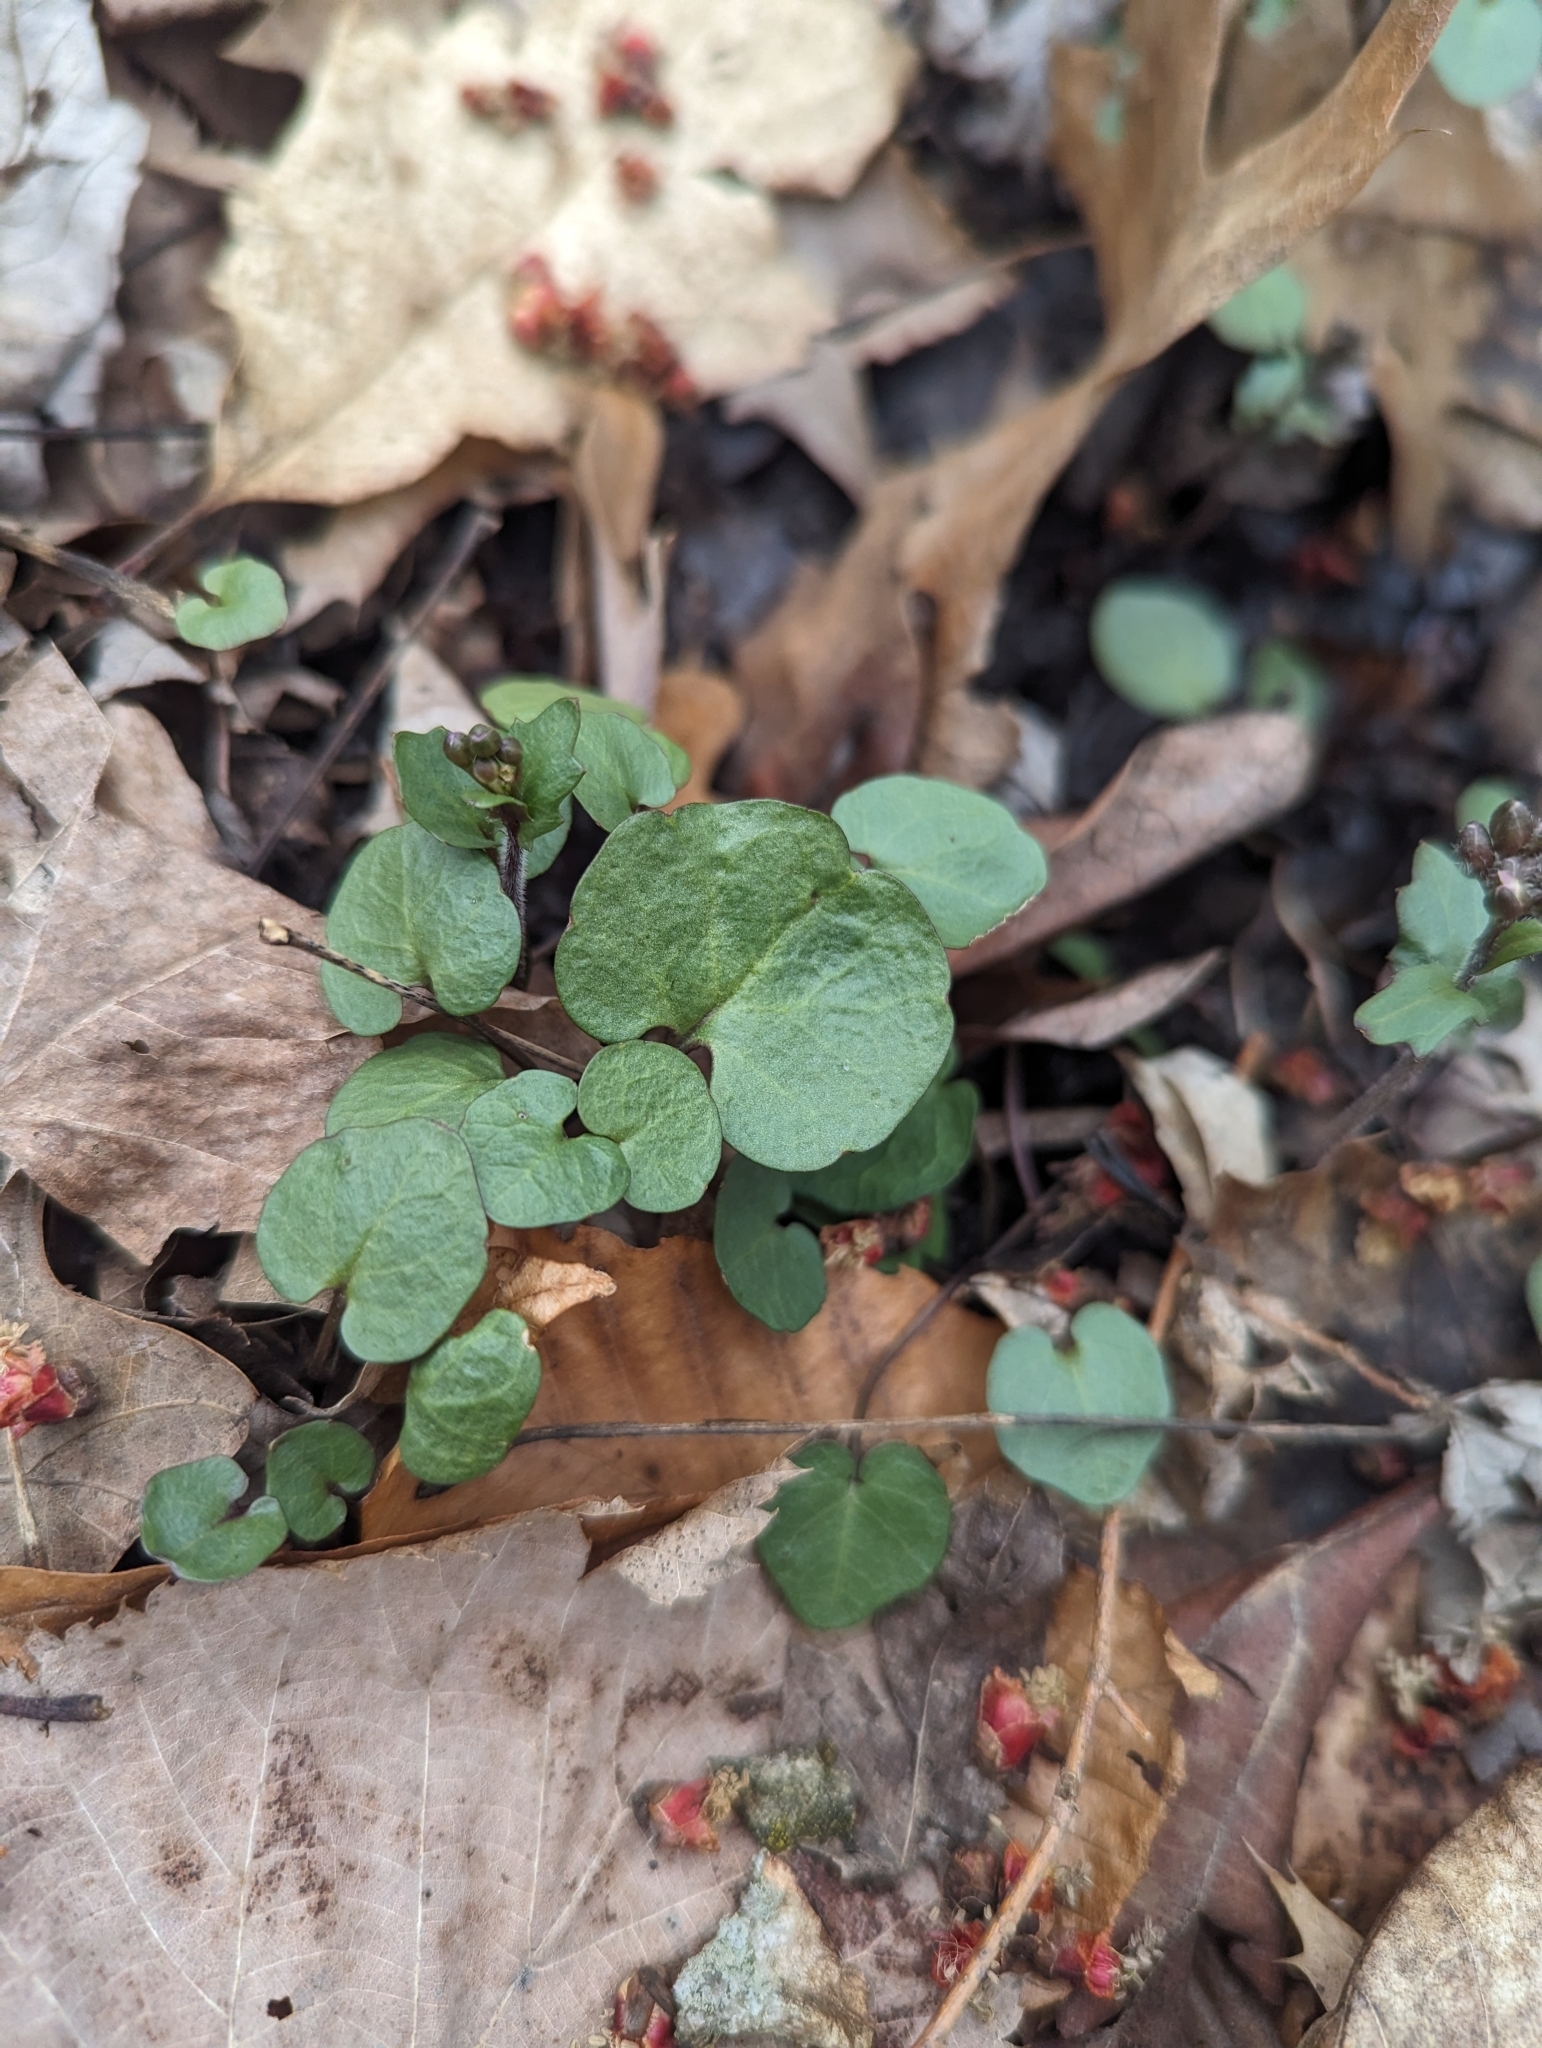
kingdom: Plantae
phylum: Tracheophyta
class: Magnoliopsida
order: Brassicales
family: Brassicaceae
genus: Cardamine
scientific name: Cardamine douglassii
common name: Purple cress
